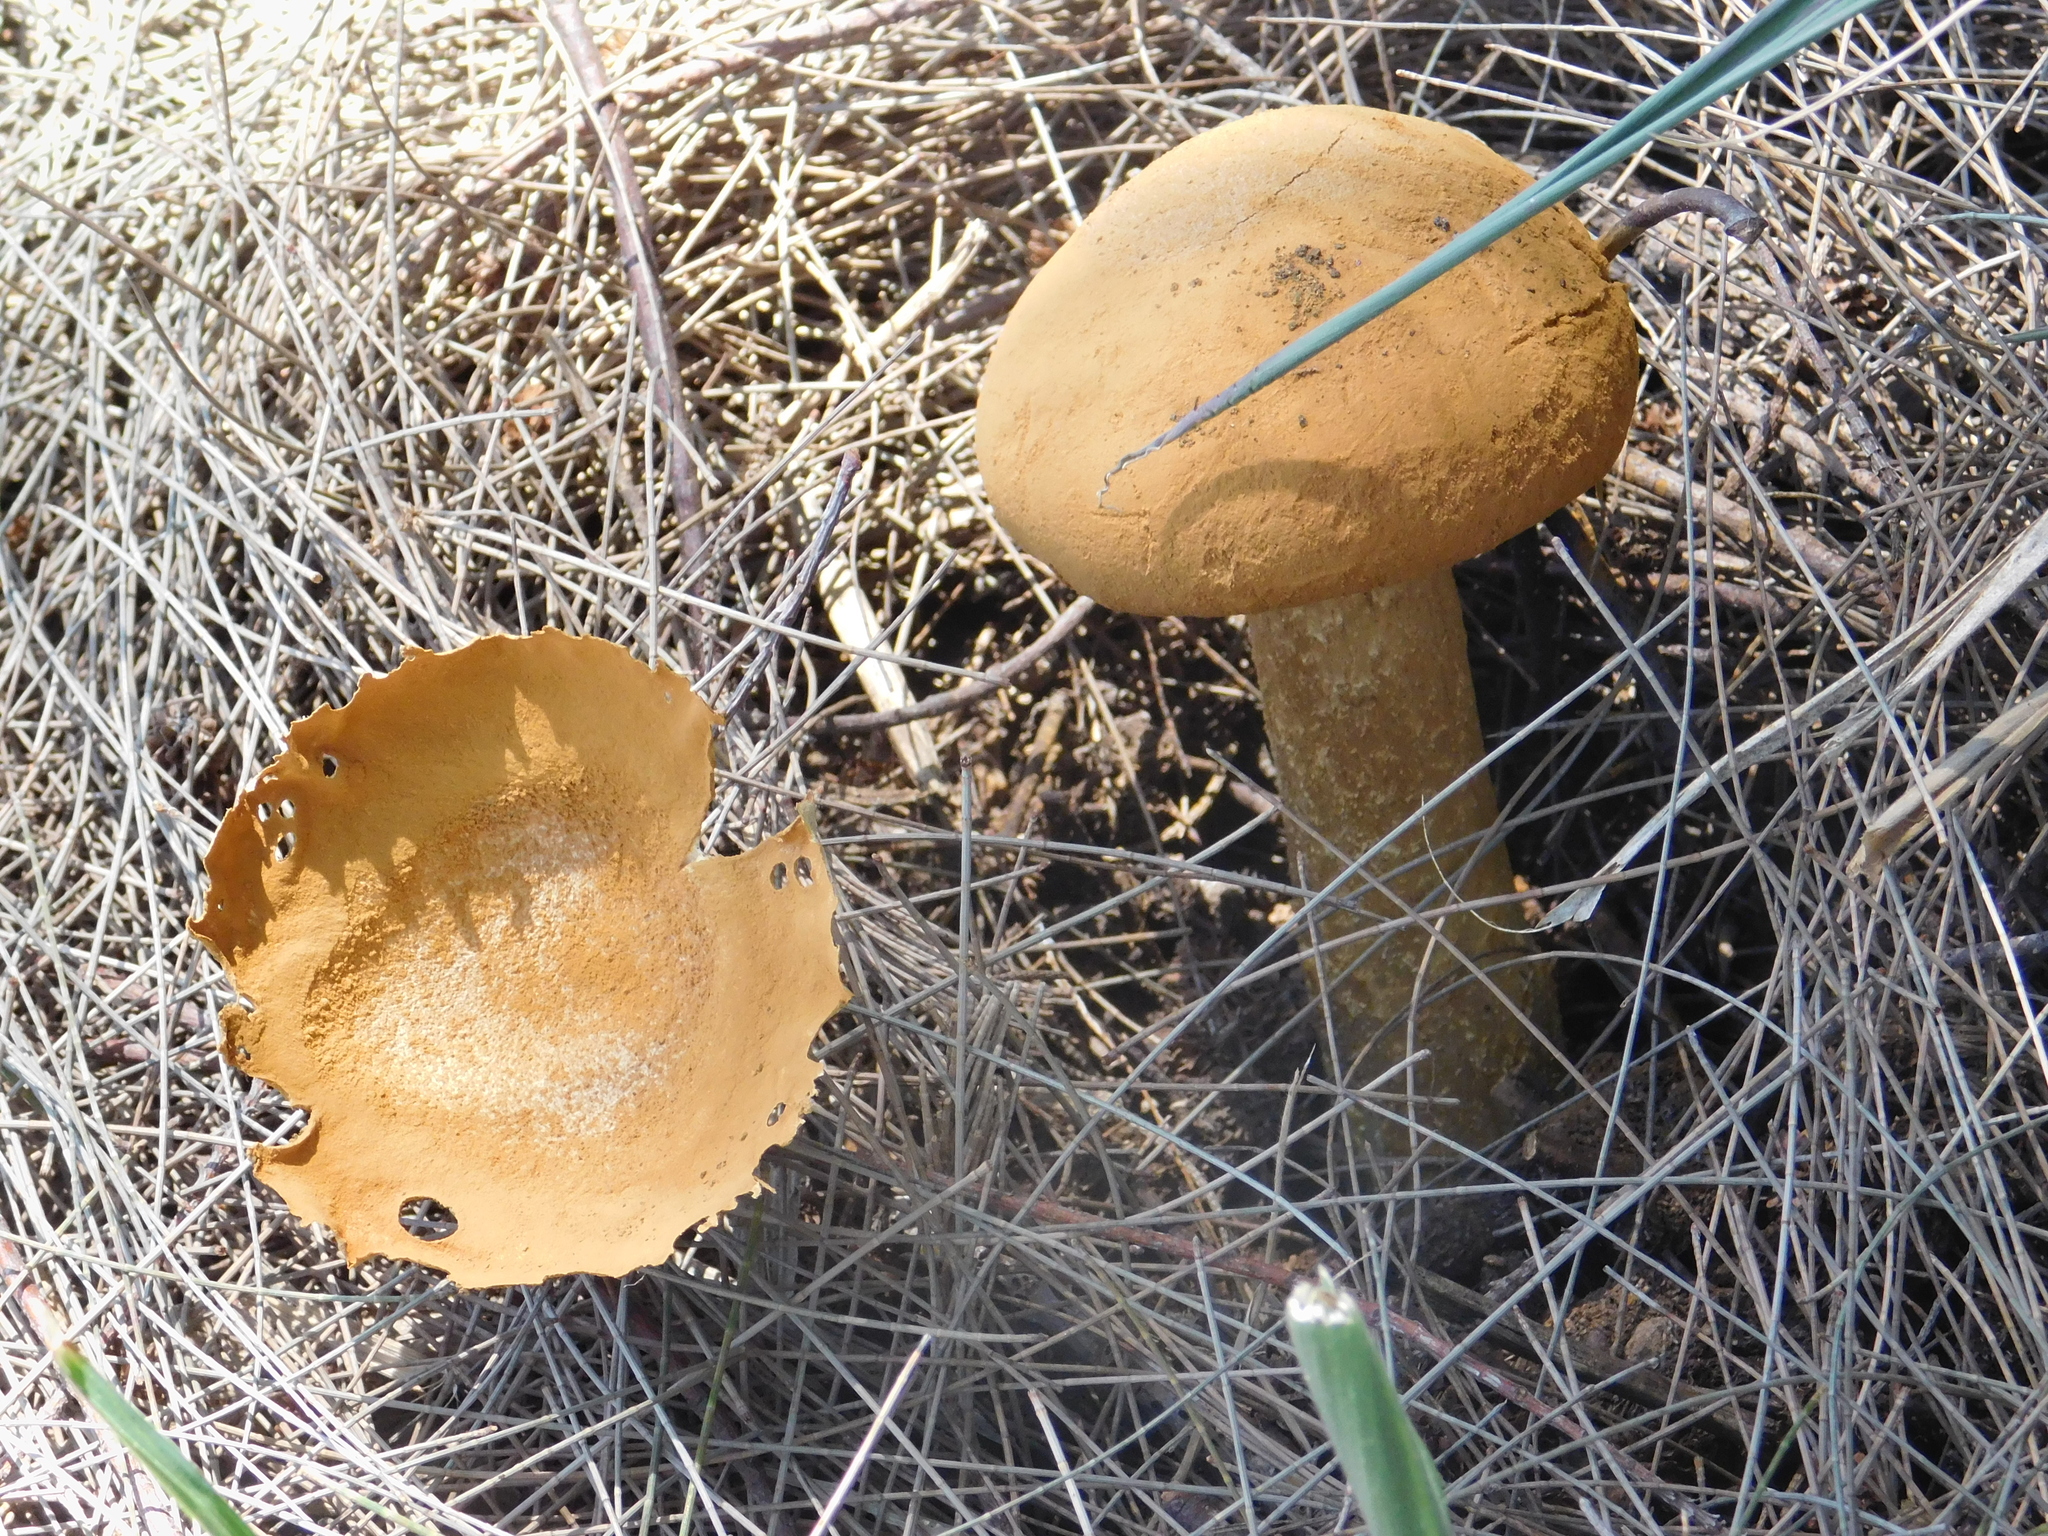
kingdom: Fungi
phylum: Basidiomycota
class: Agaricomycetes
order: Agaricales
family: Agaricaceae
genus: Battarrea
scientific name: Battarrea phalloides
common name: Sandy stiltball
